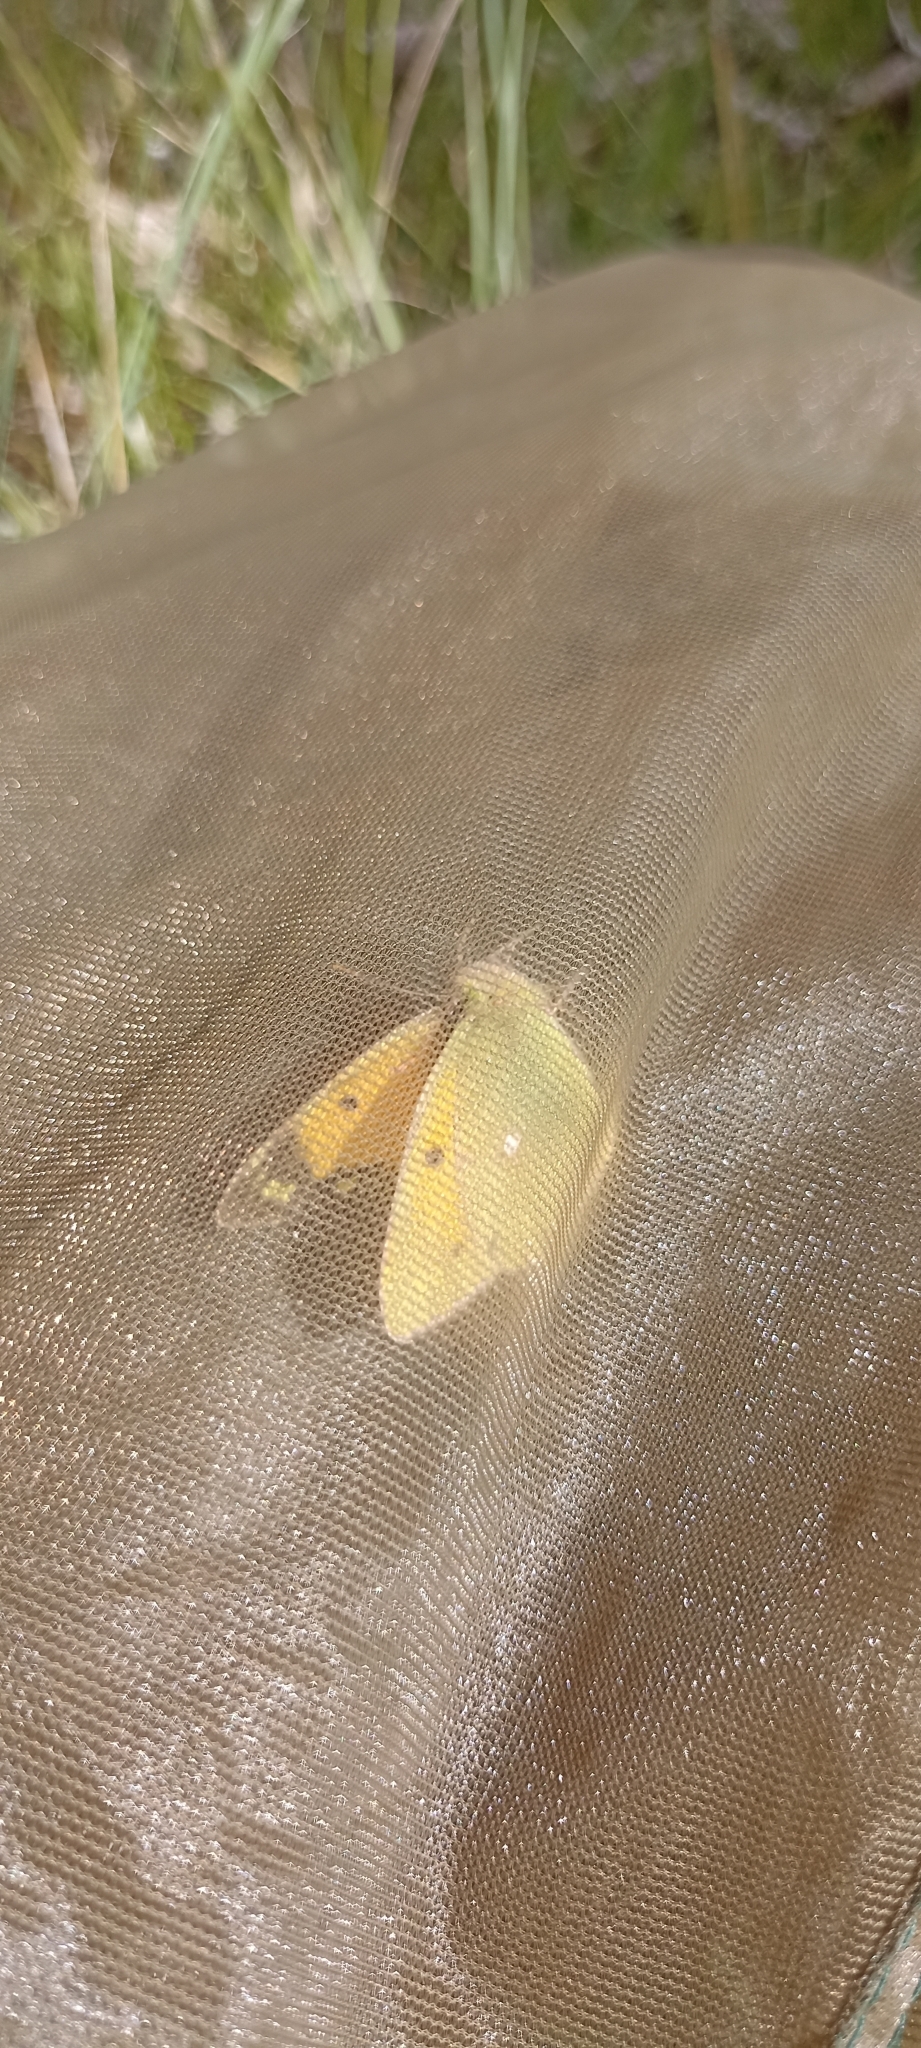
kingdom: Animalia
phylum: Arthropoda
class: Insecta
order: Lepidoptera
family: Pieridae
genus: Colias
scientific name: Colias croceus
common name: Clouded yellow
